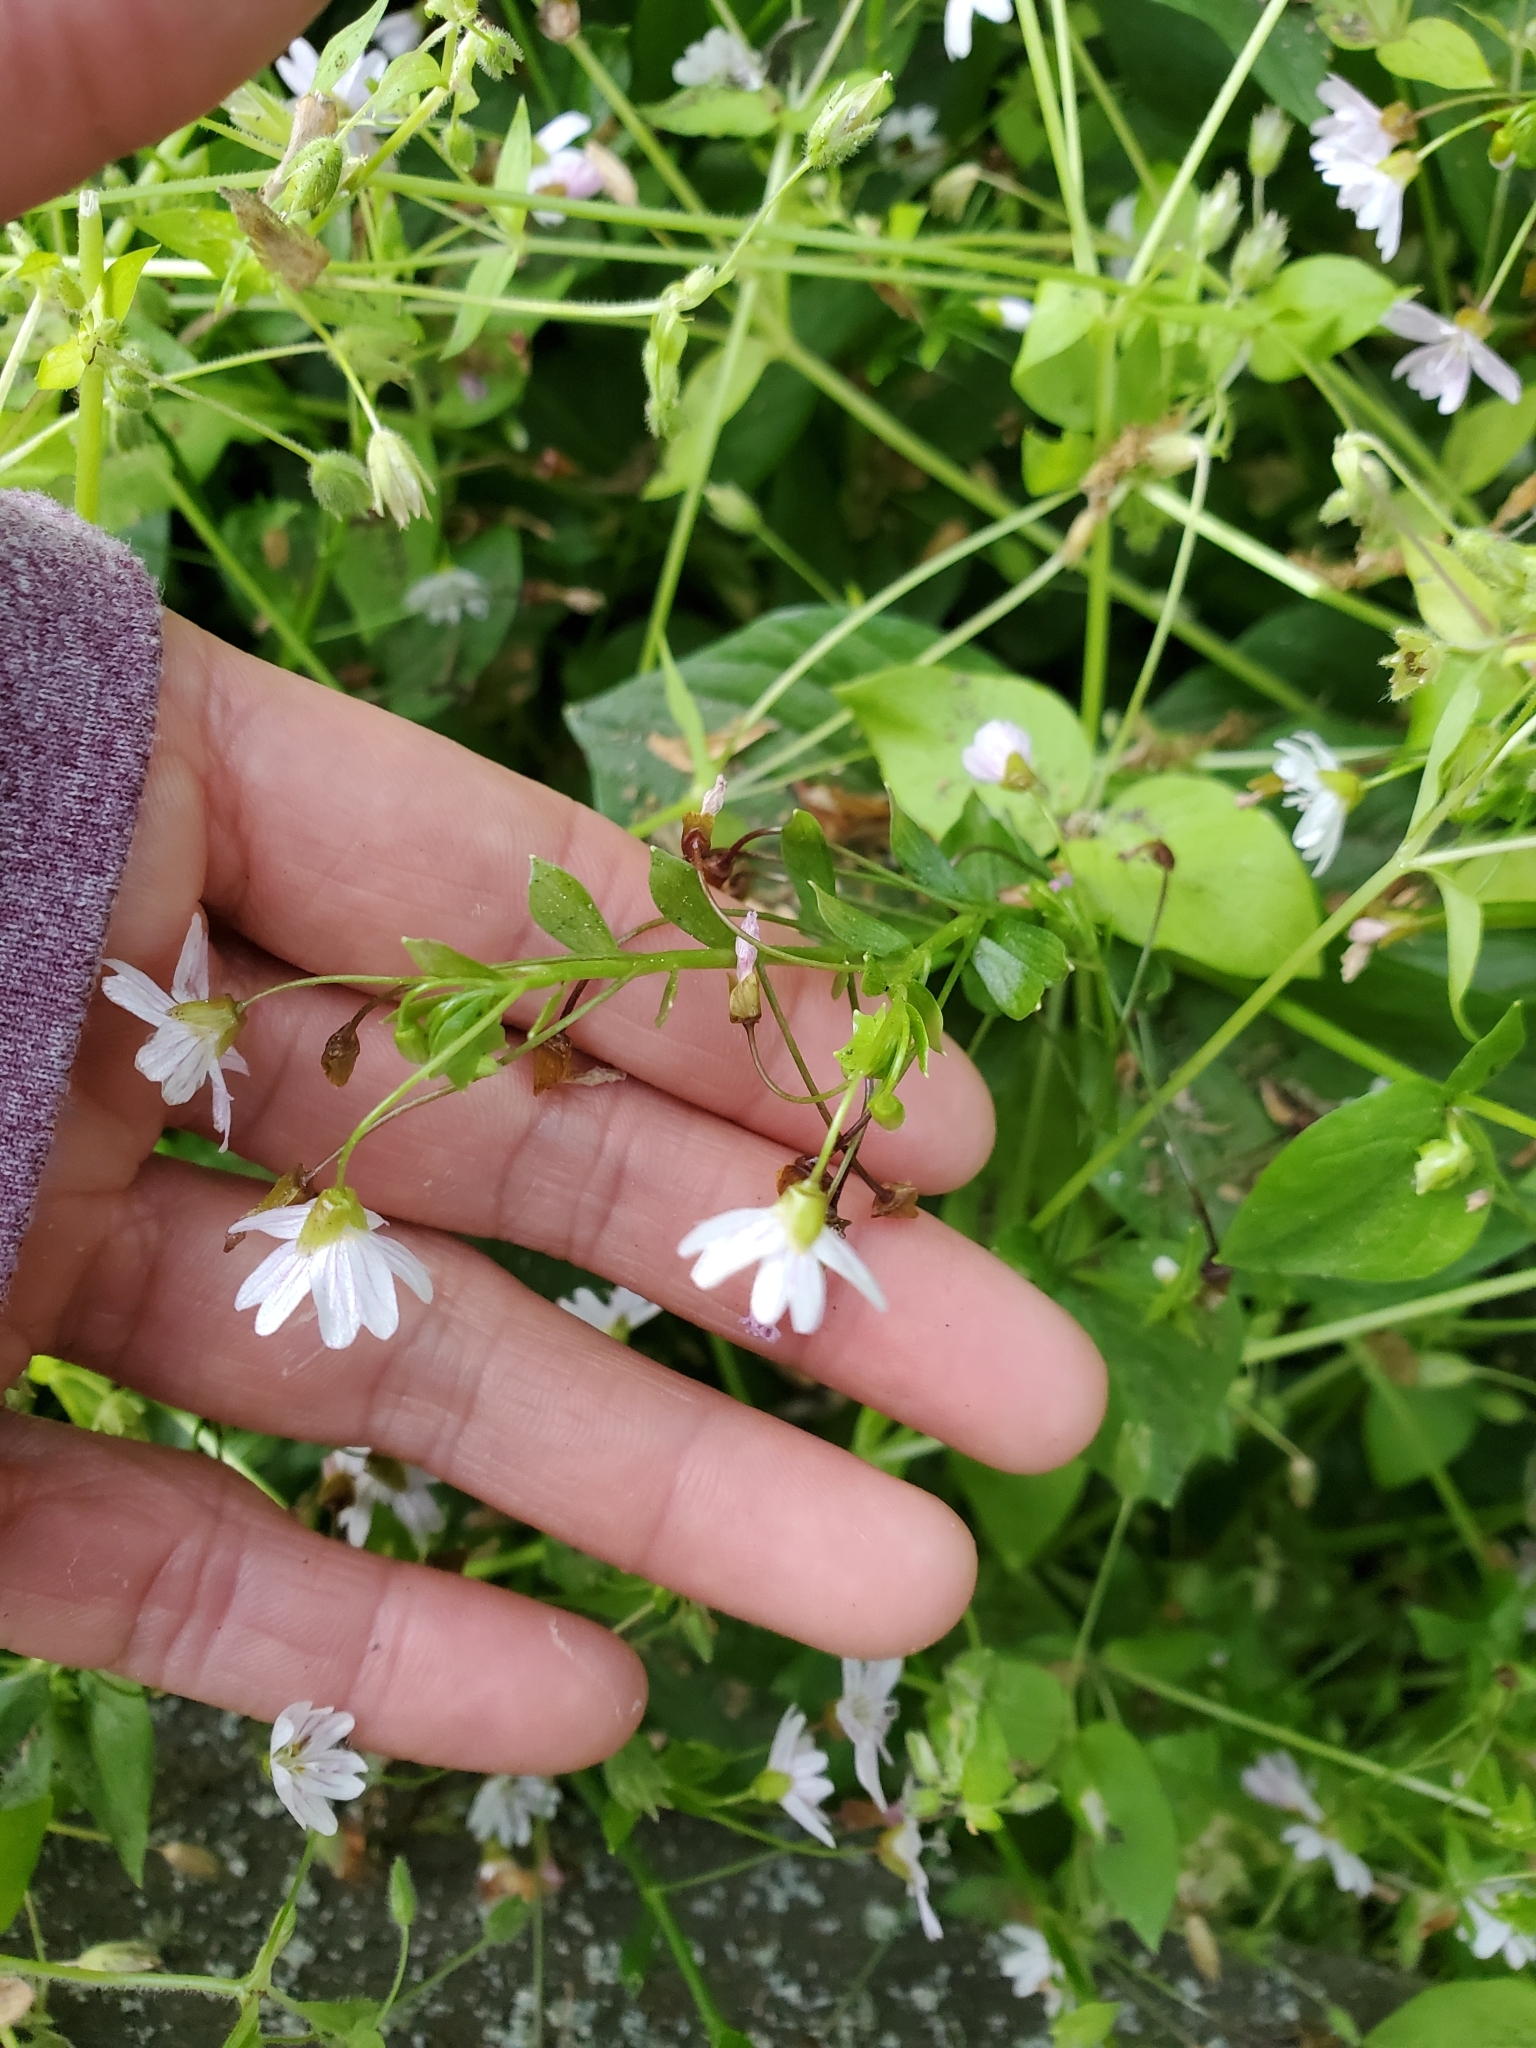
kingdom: Plantae
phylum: Tracheophyta
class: Magnoliopsida
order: Caryophyllales
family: Montiaceae
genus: Claytonia
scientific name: Claytonia sibirica
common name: Pink purslane
